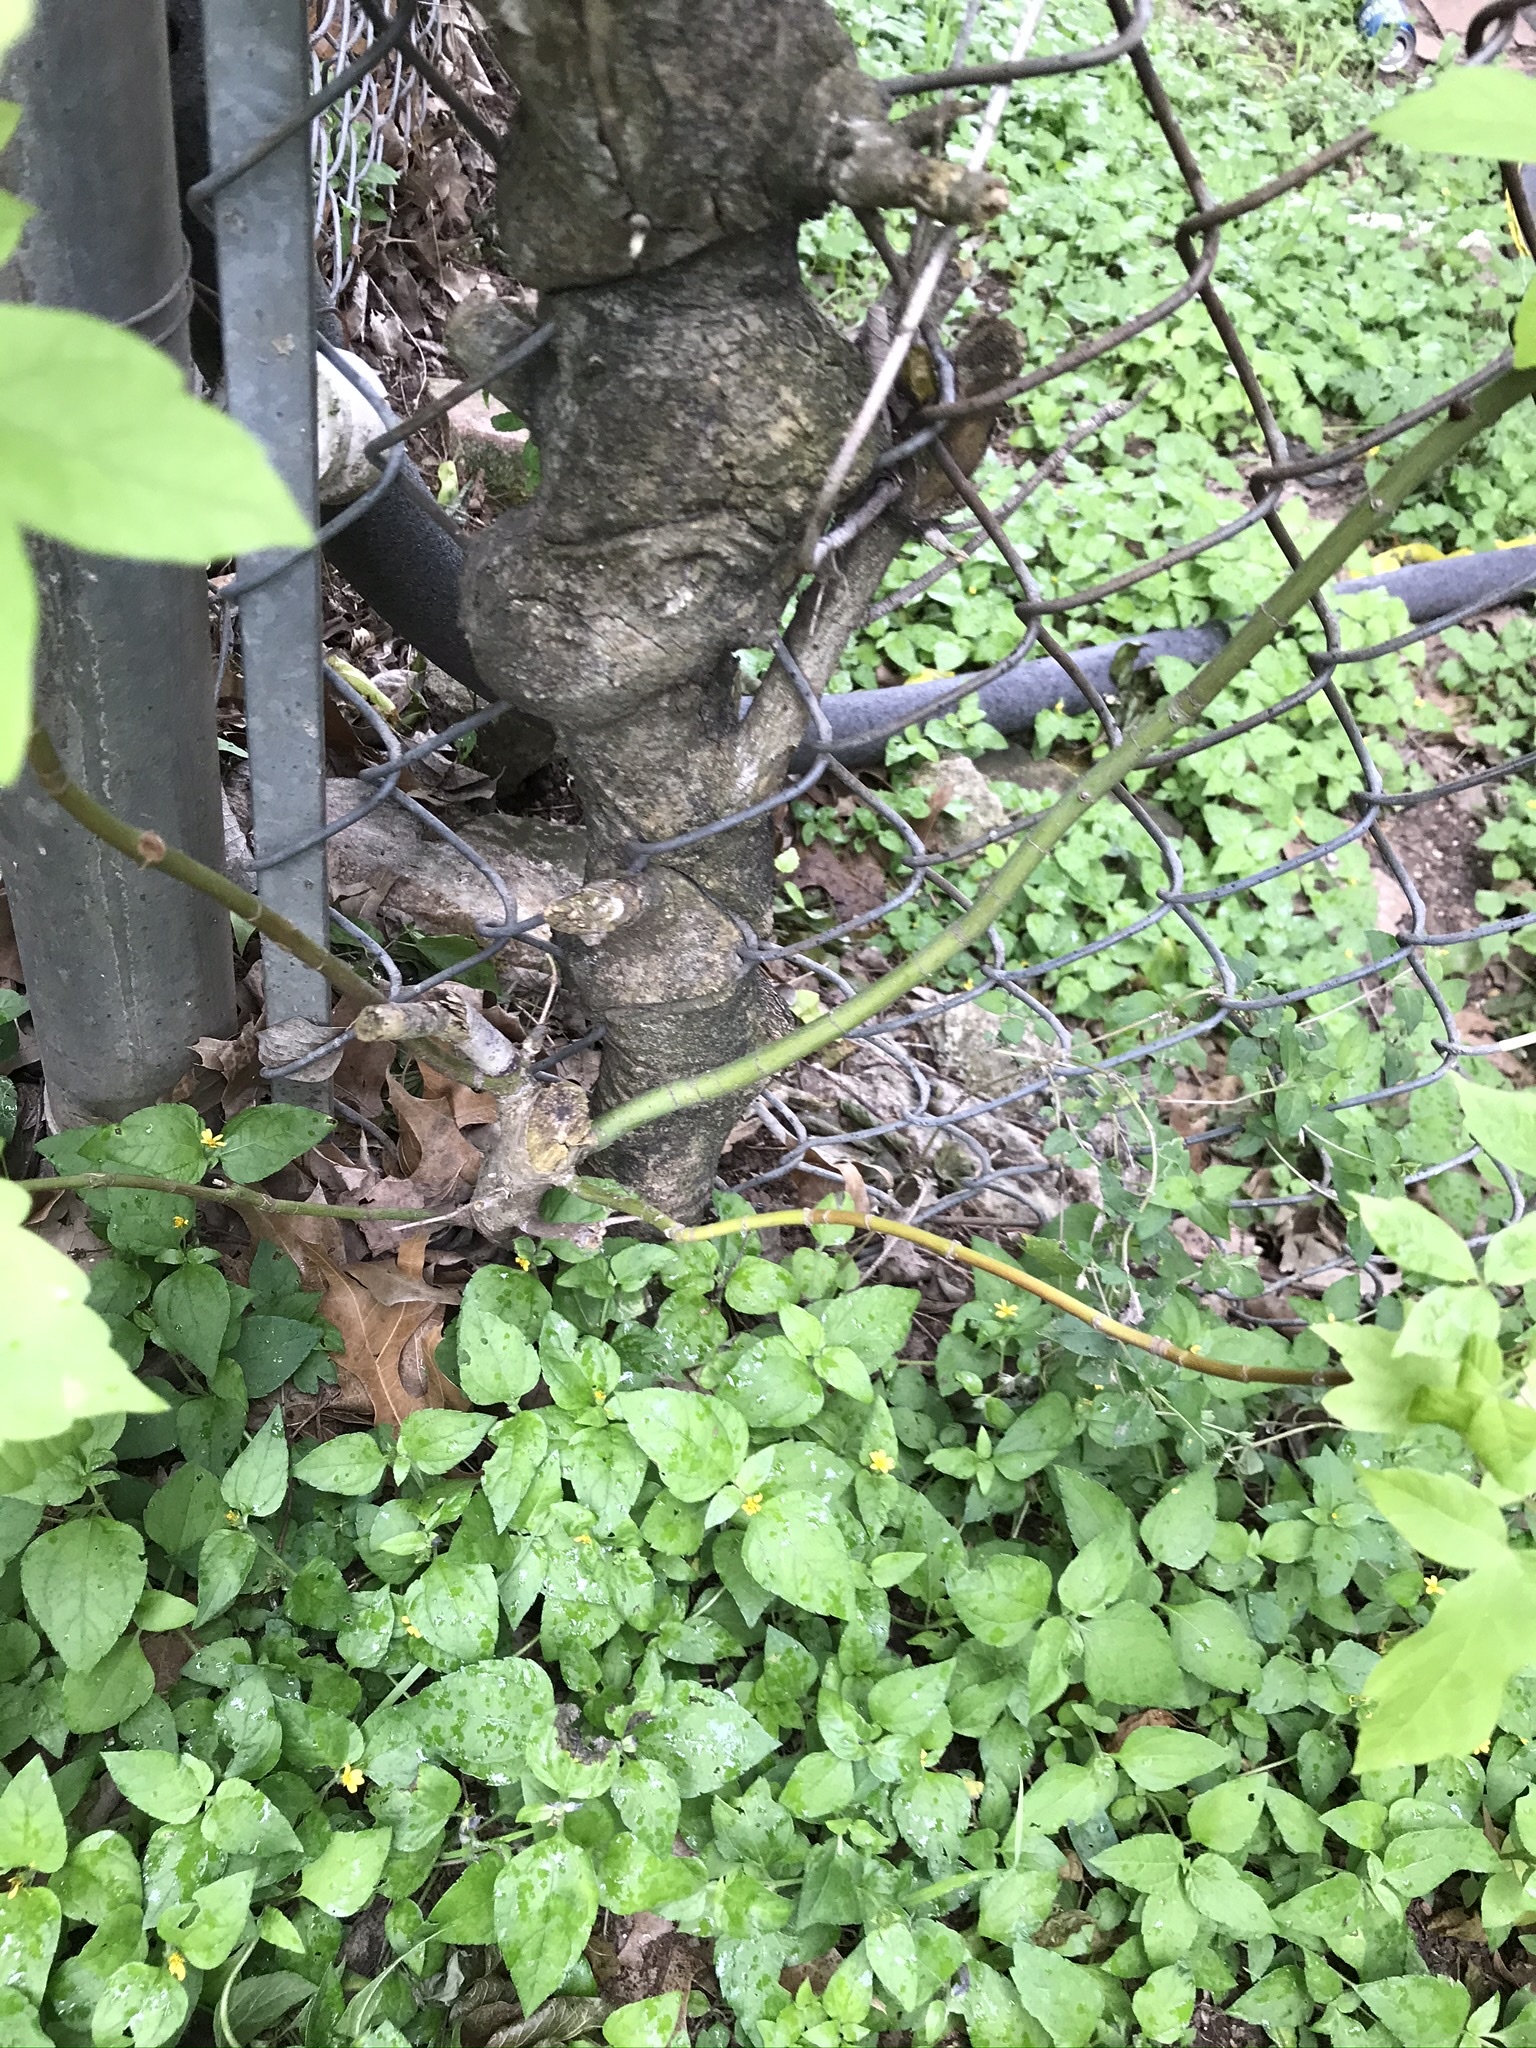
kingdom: Plantae
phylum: Tracheophyta
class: Magnoliopsida
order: Sapindales
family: Sapindaceae
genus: Acer
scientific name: Acer negundo
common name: Ashleaf maple
